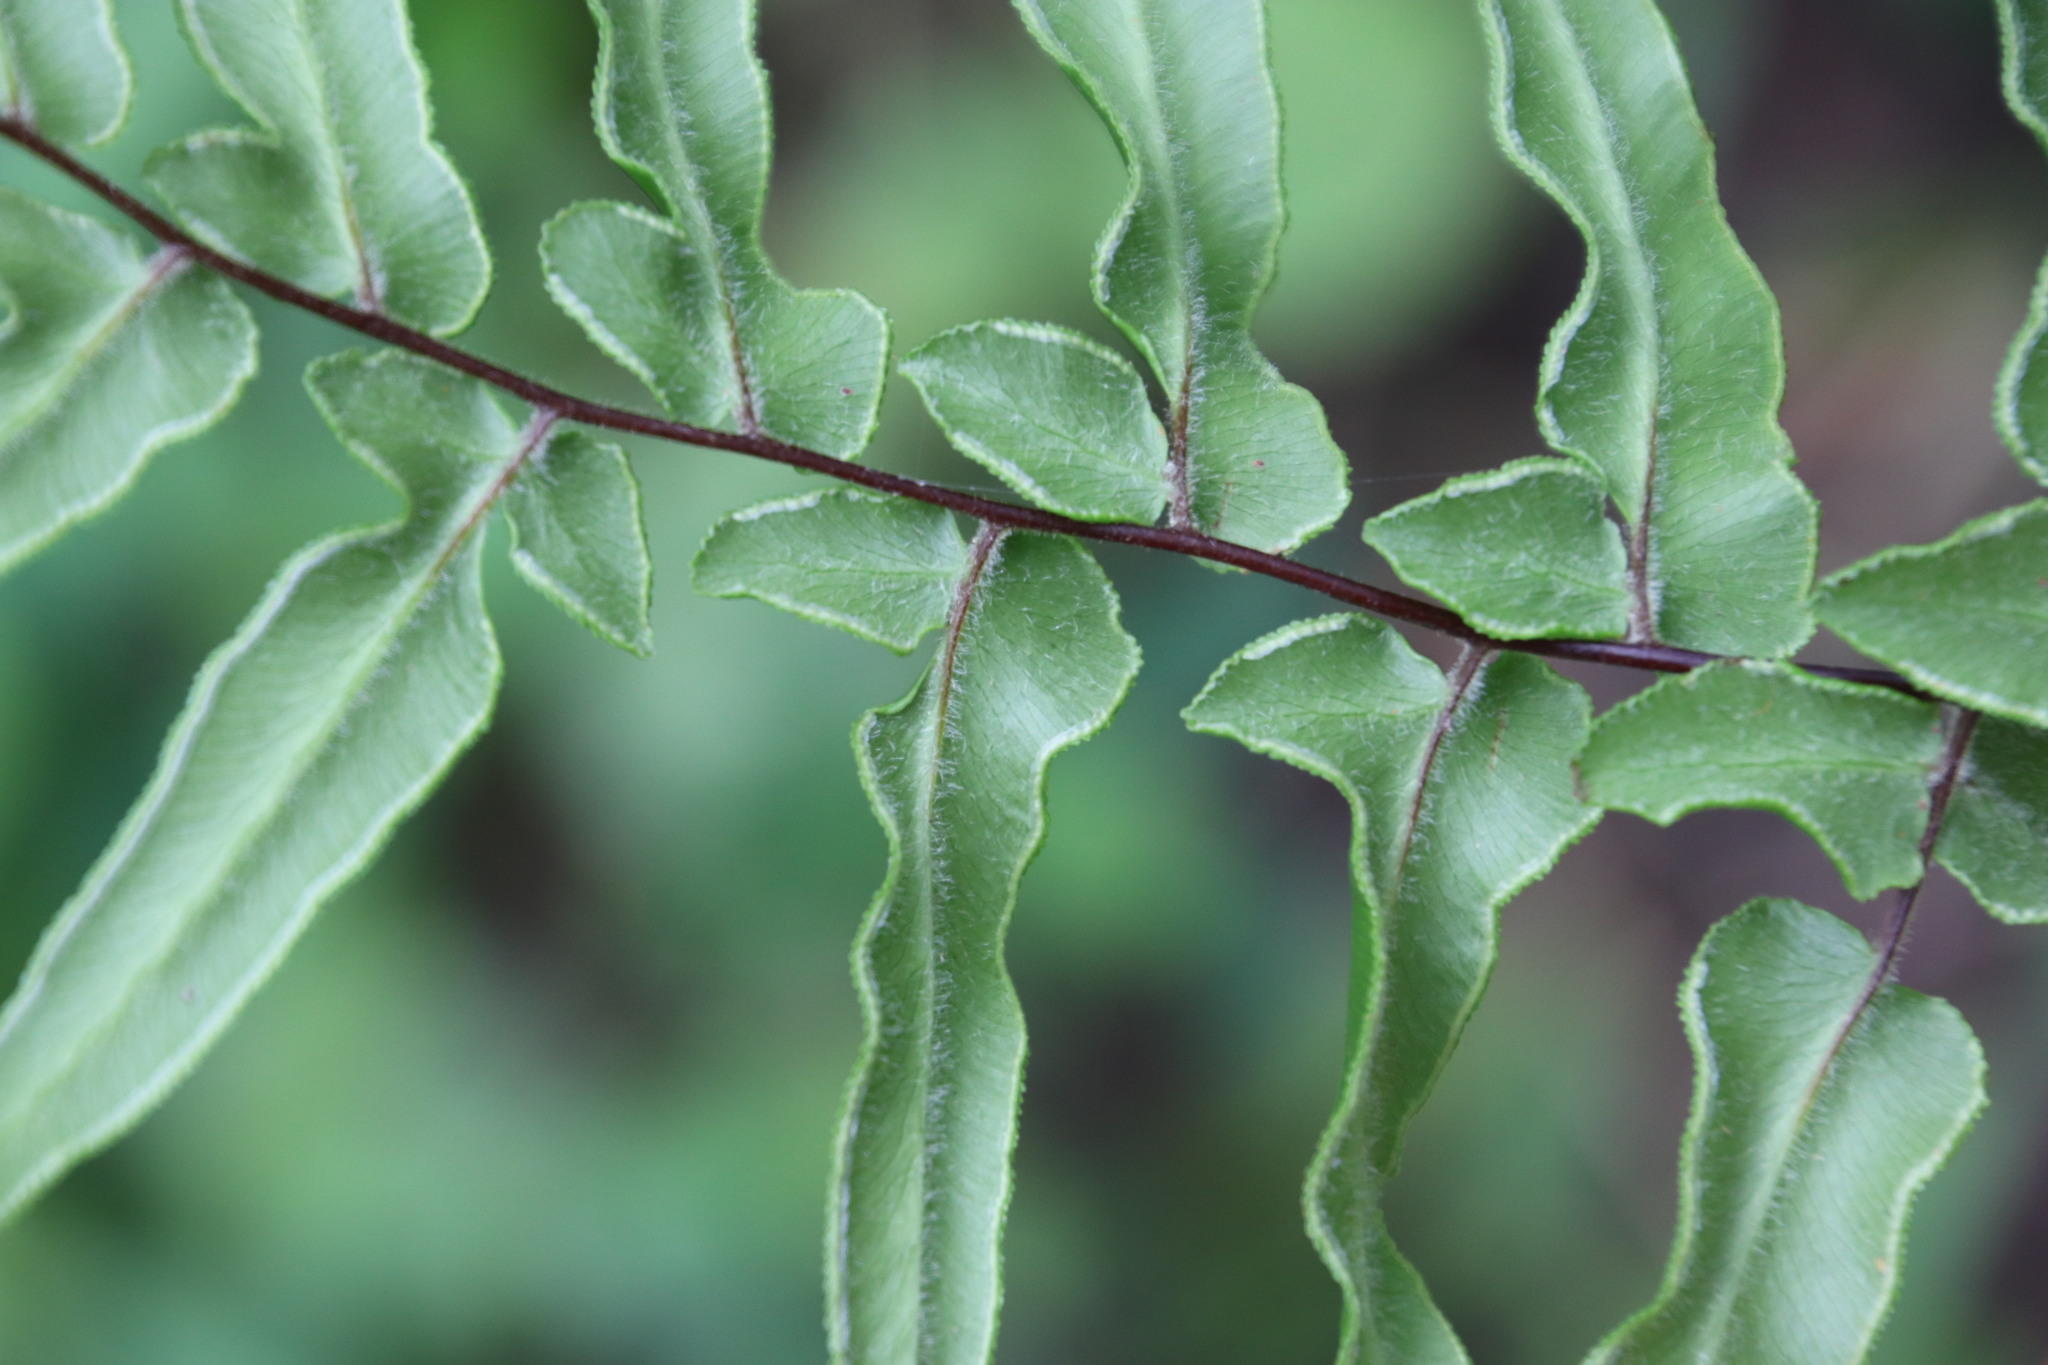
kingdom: Plantae
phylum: Tracheophyta
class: Polypodiopsida
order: Polypodiales
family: Pteridaceae
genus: Cheilanthes
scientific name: Cheilanthes viridis
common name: Green cliffbrake
